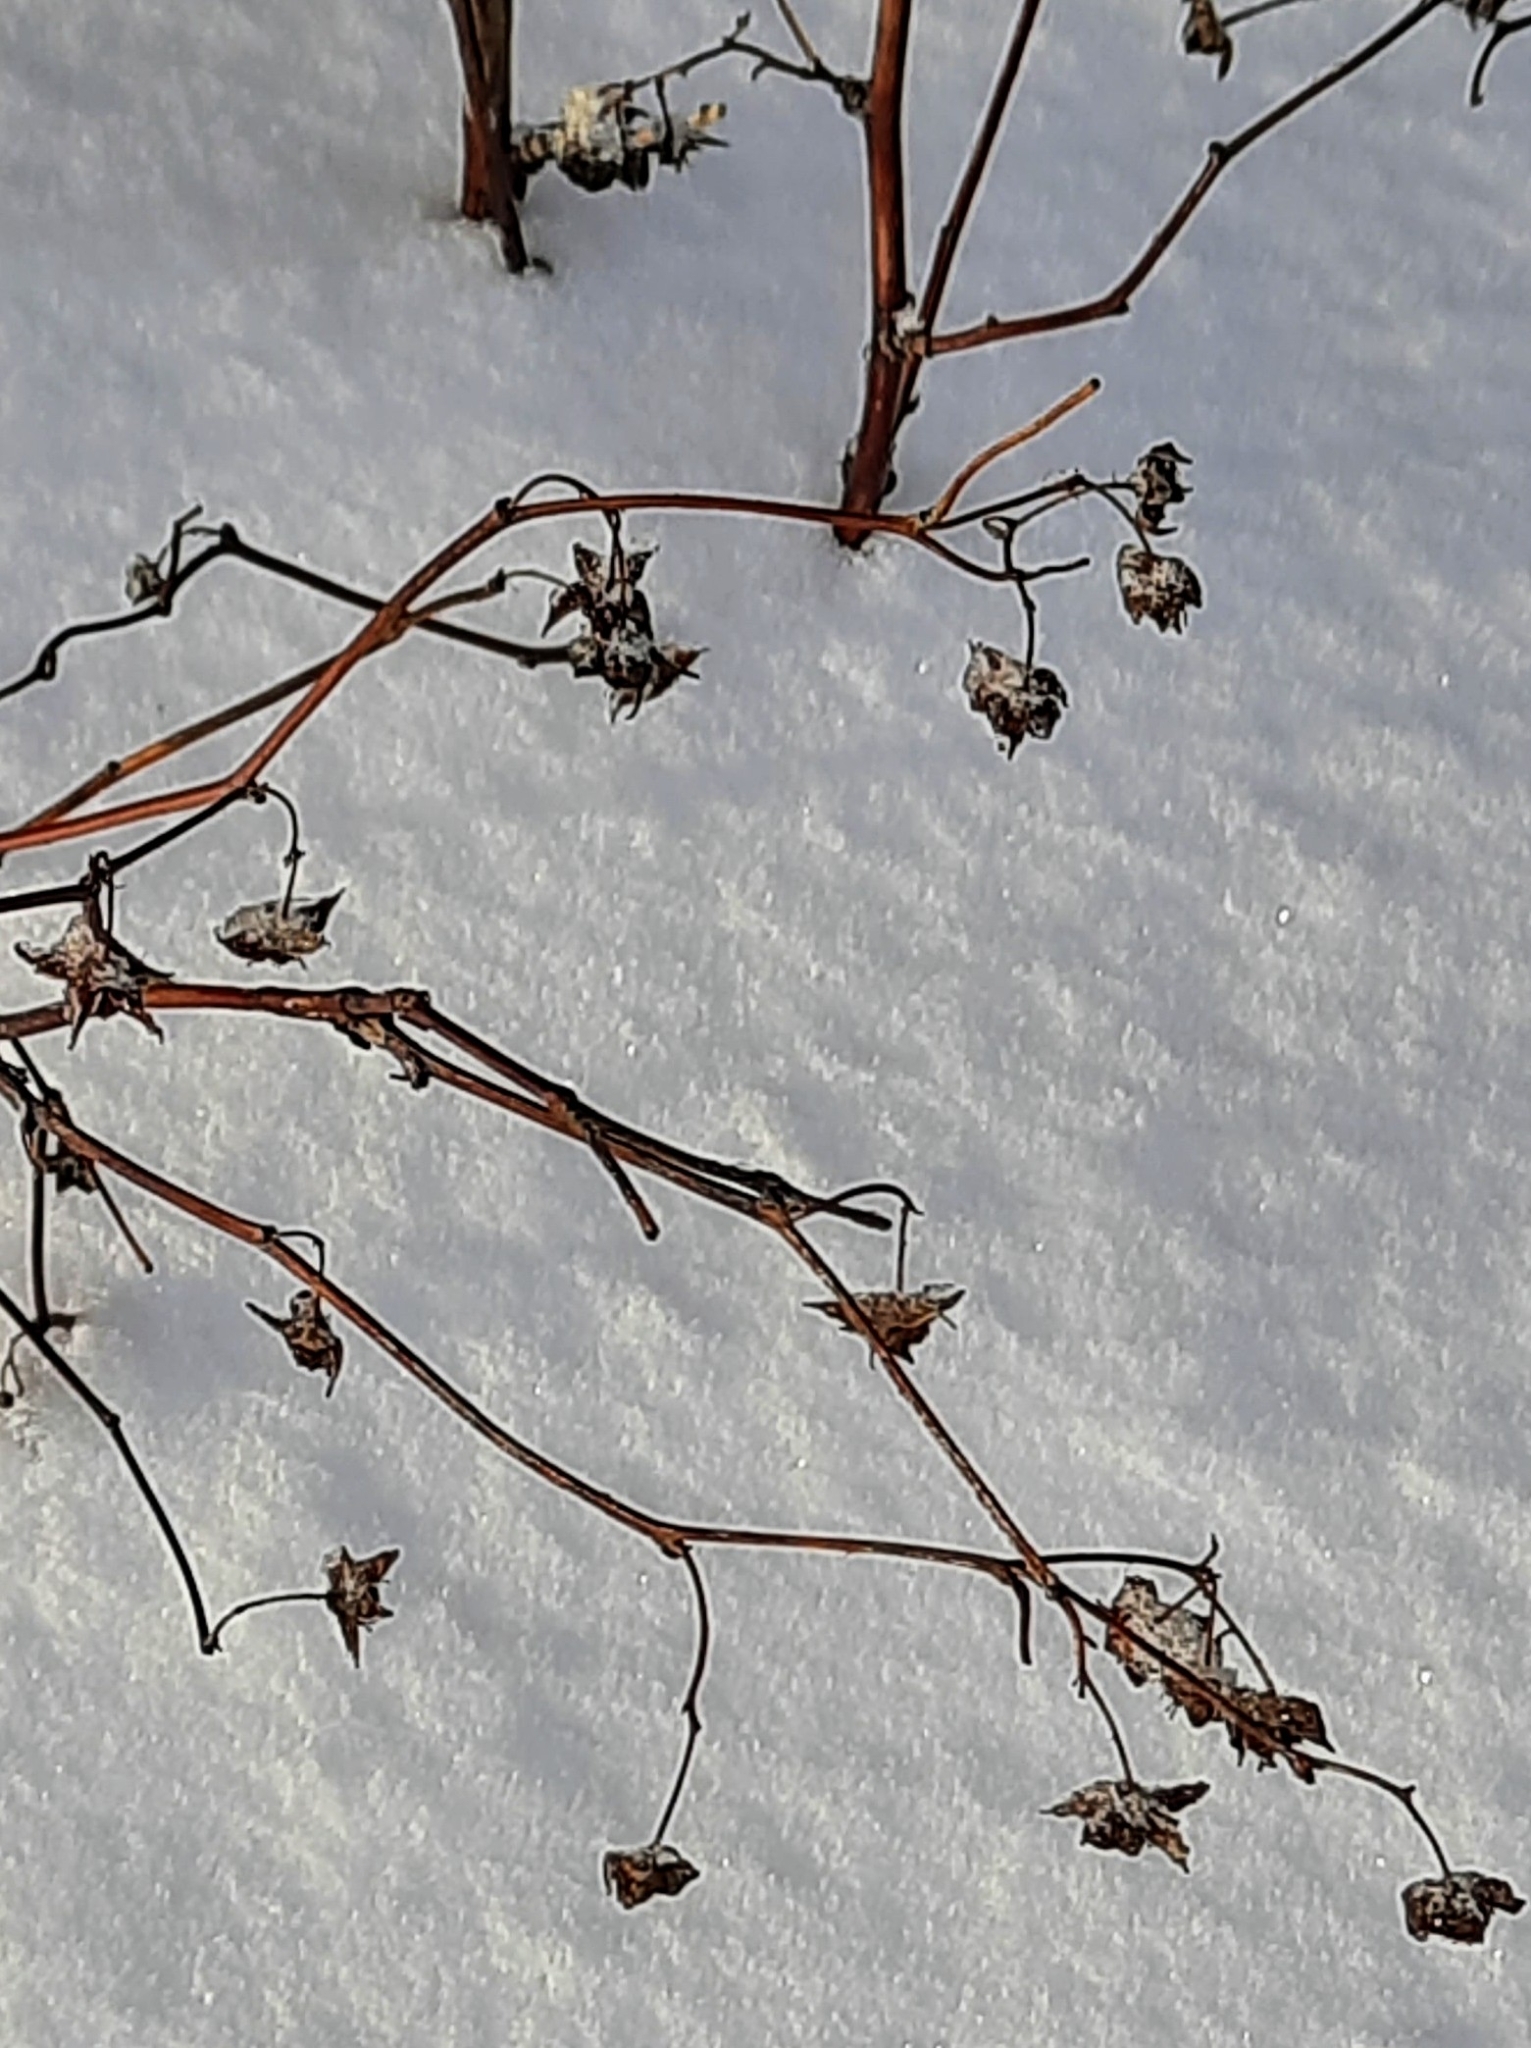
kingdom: Plantae
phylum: Tracheophyta
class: Magnoliopsida
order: Rosales
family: Rosaceae
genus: Rubus
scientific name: Rubus idaeus
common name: Raspberry
